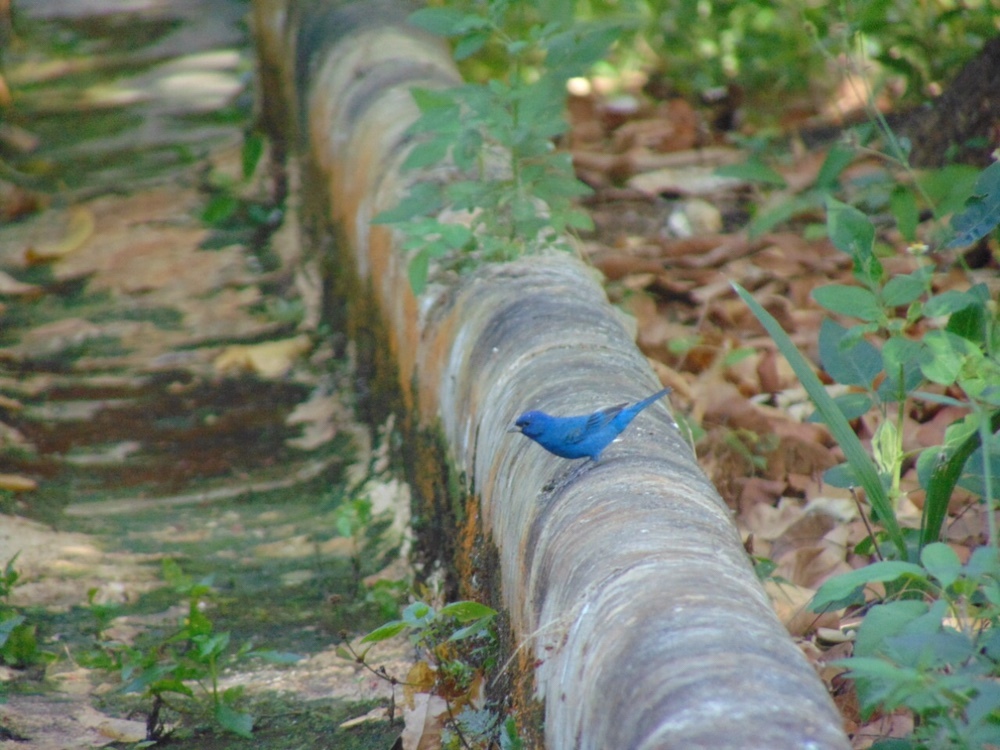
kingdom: Animalia
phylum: Chordata
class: Aves
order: Passeriformes
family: Cardinalidae
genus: Passerina
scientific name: Passerina cyanea
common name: Indigo bunting
